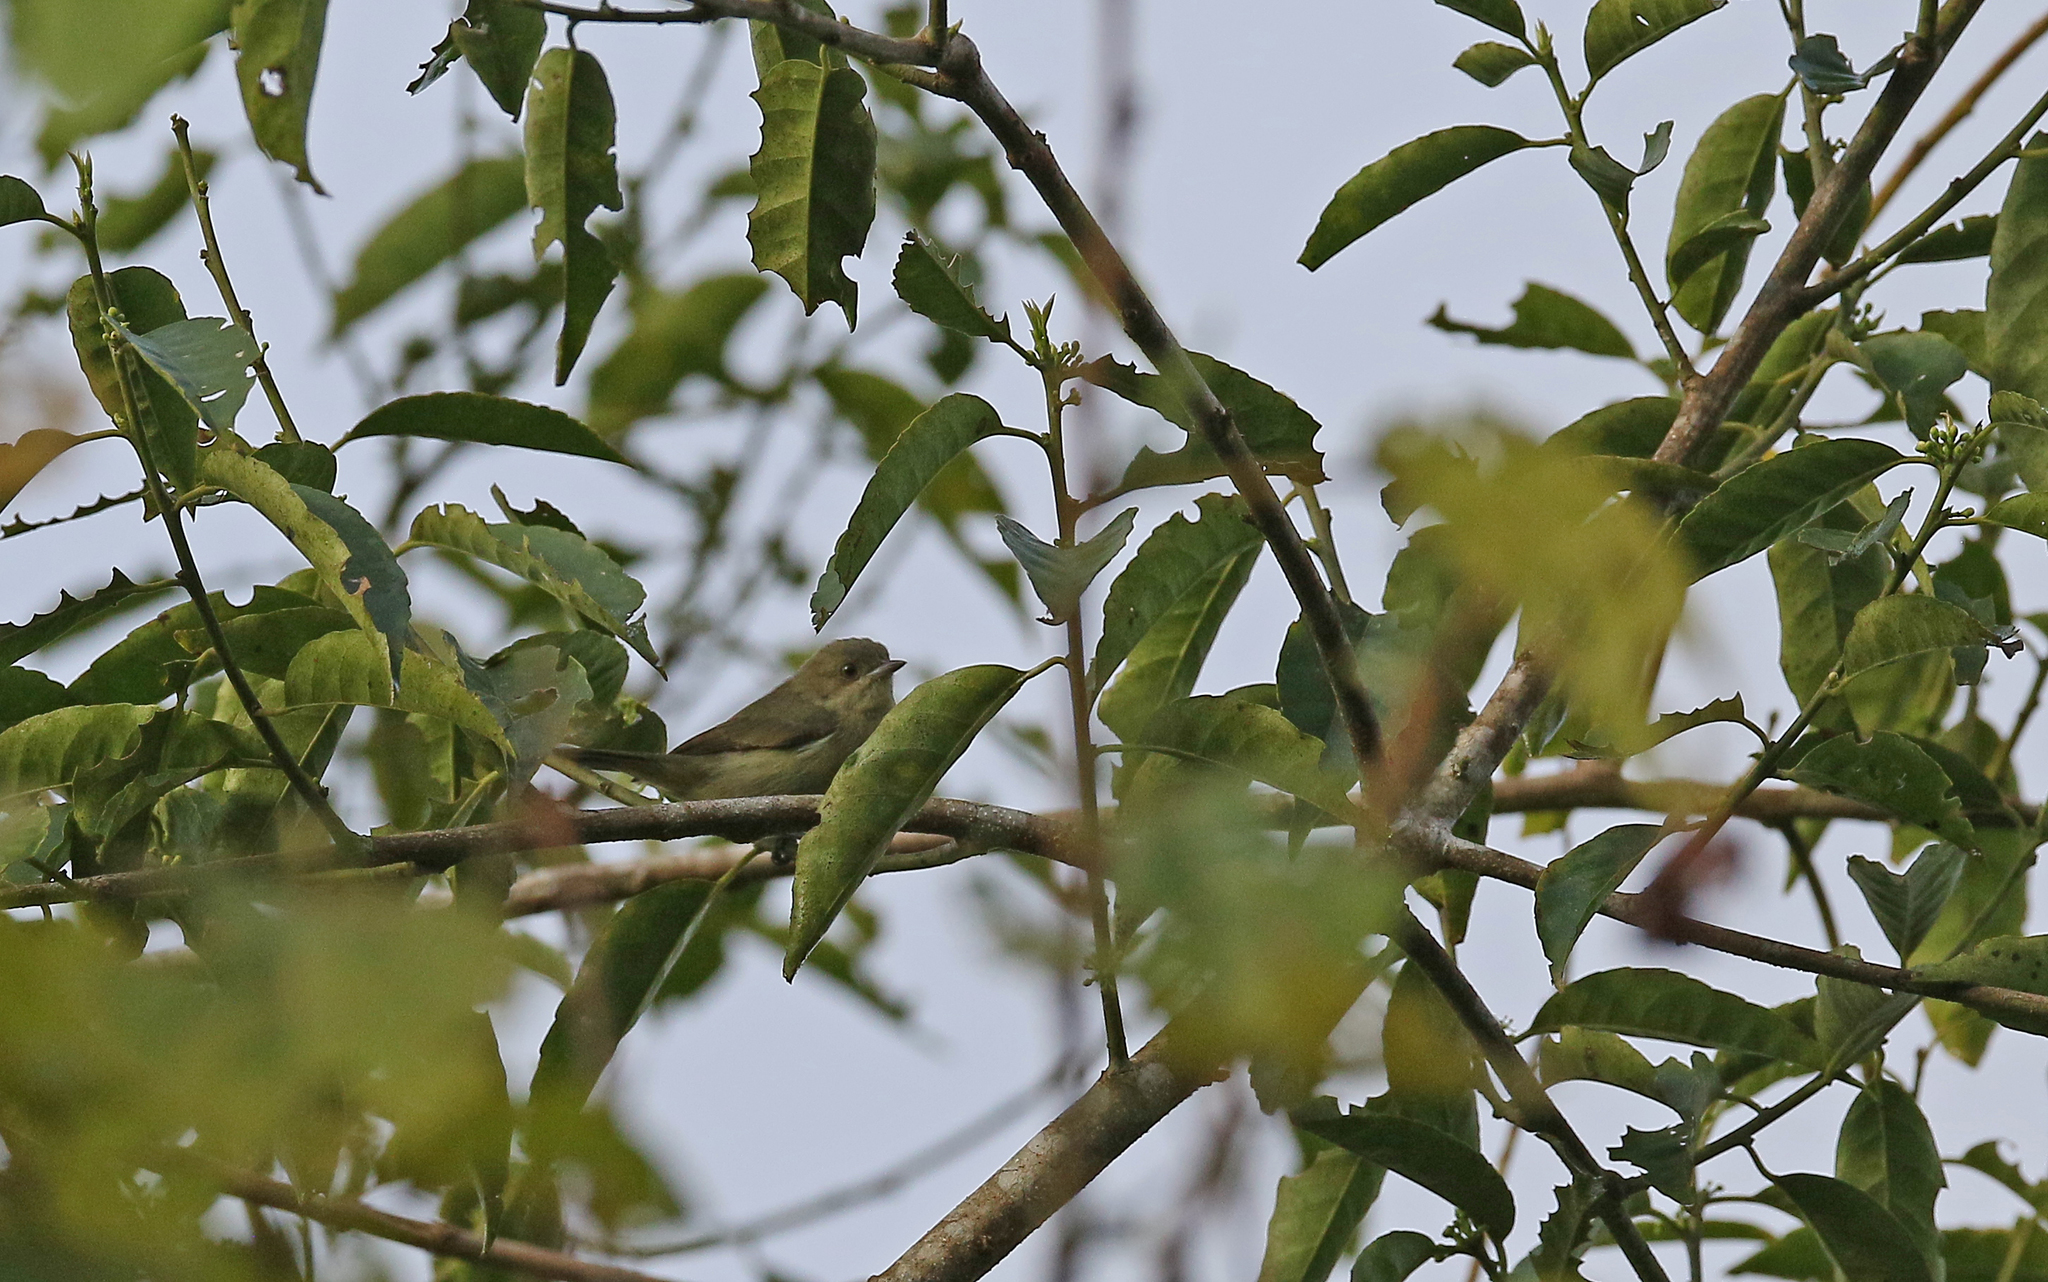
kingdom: Animalia
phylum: Chordata
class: Aves
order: Passeriformes
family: Thraupidae
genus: Dacnis
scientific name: Dacnis lineata
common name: Black-faced dacnis
